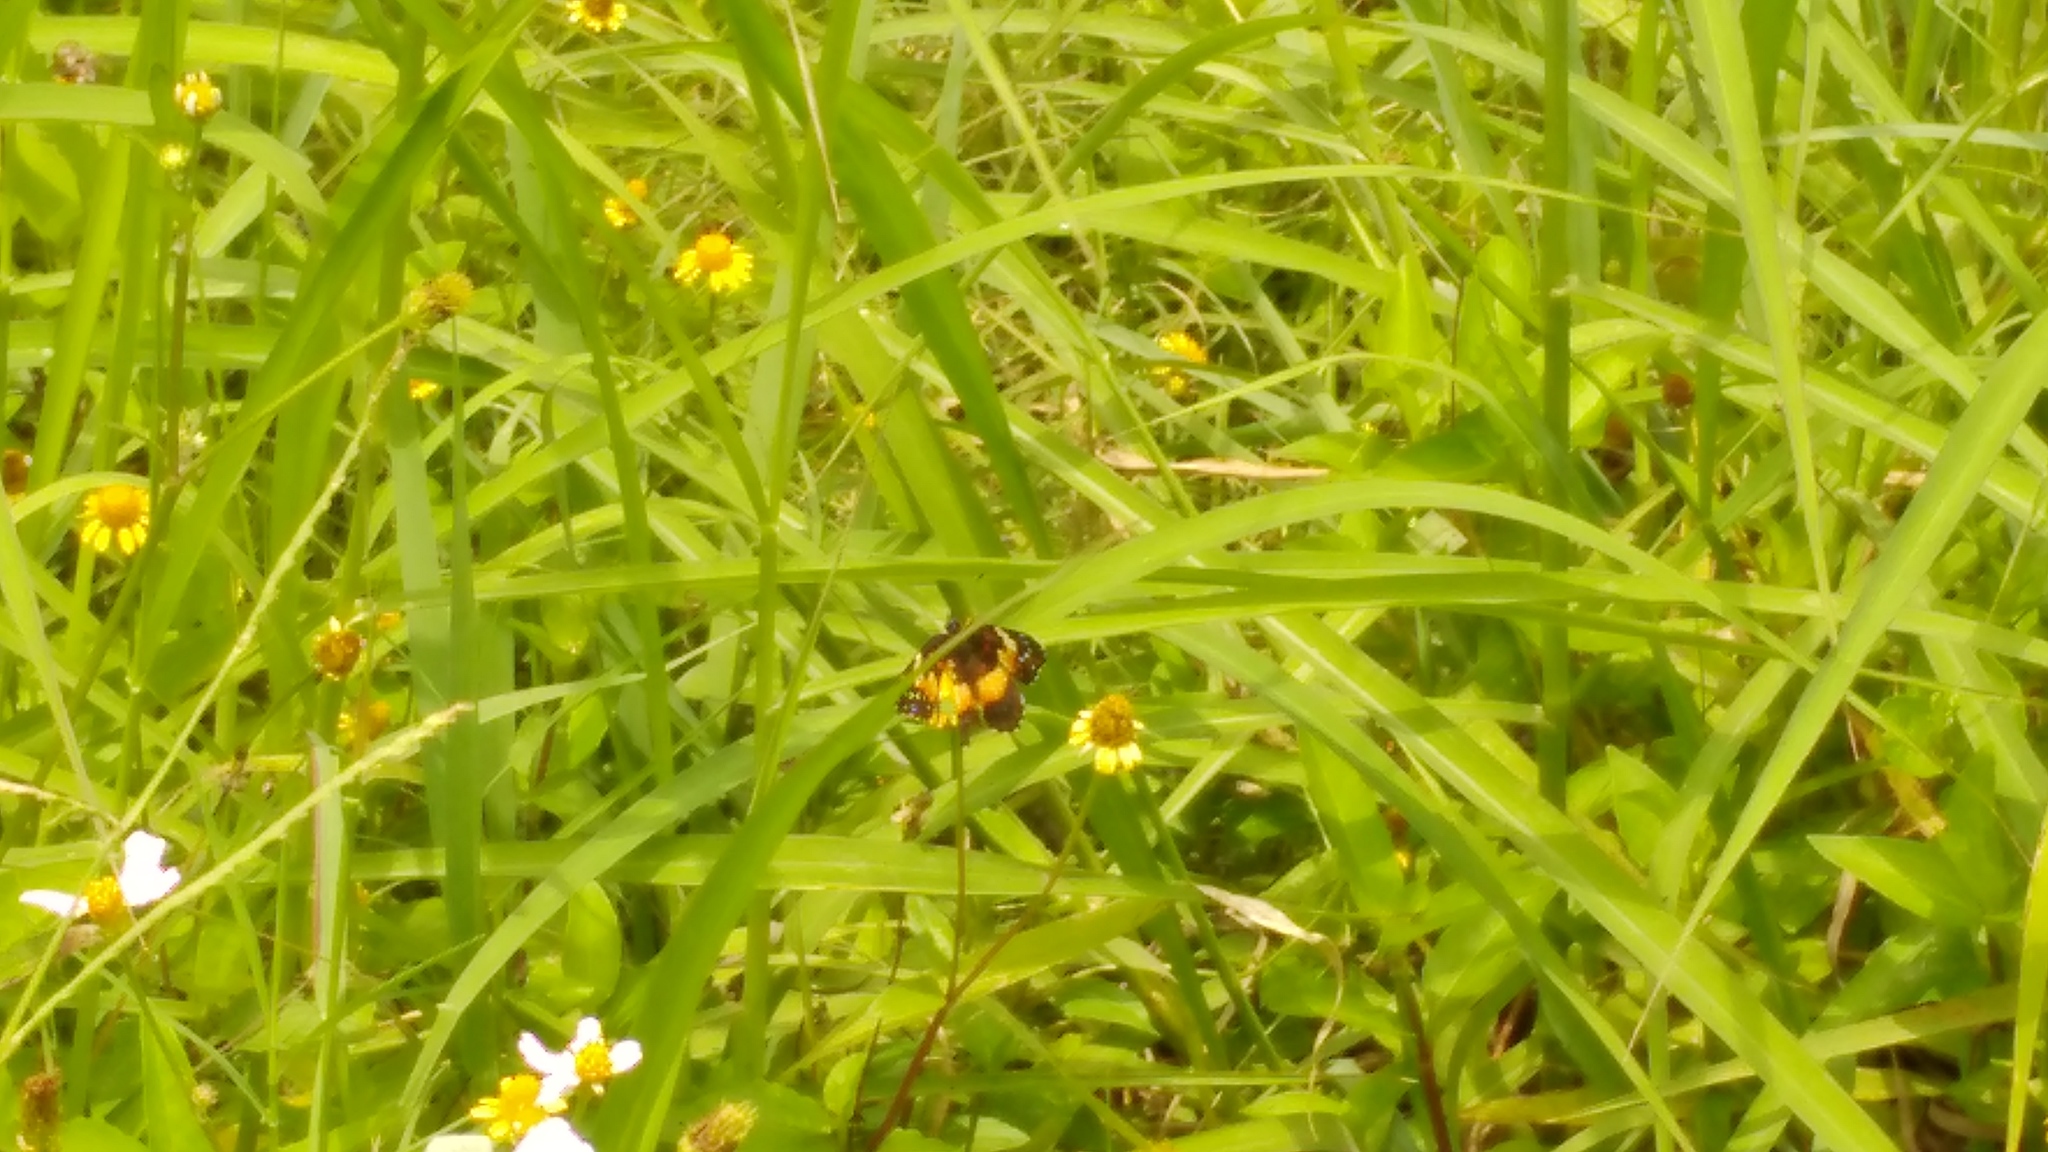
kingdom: Animalia
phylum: Arthropoda
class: Insecta
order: Lepidoptera
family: Nymphalidae
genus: Chlosyne
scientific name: Chlosyne lacinia
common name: Bordered patch
